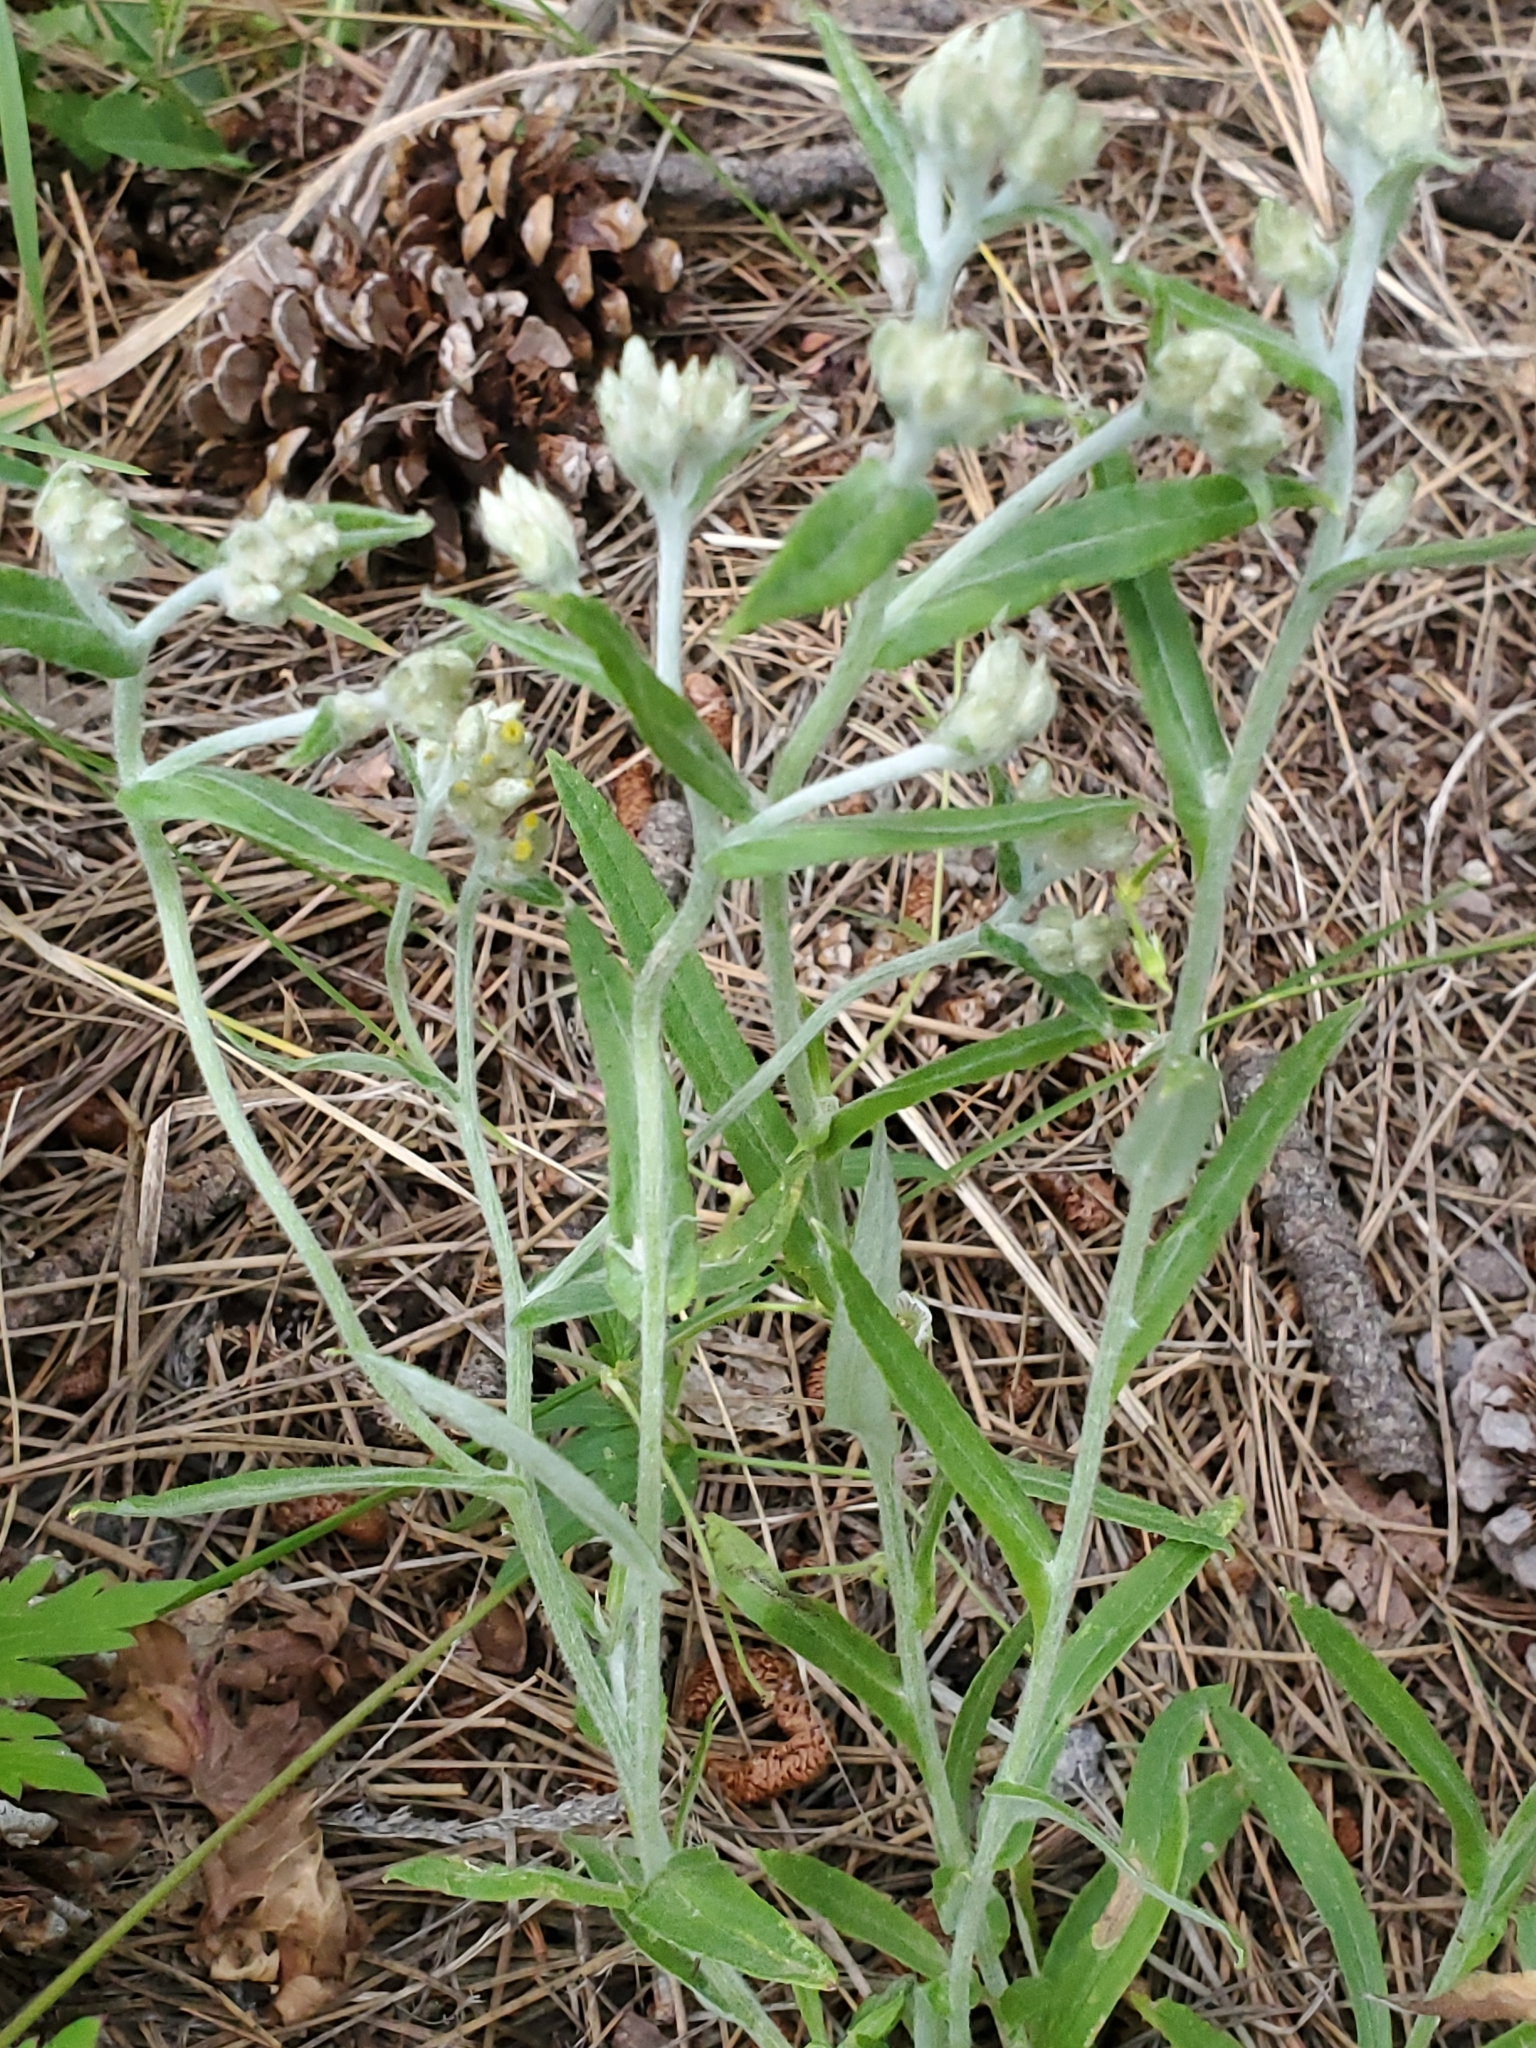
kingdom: Plantae
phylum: Tracheophyta
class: Magnoliopsida
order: Asterales
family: Asteraceae
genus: Pseudognaphalium
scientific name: Pseudognaphalium macounii
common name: Clammy cudweed
